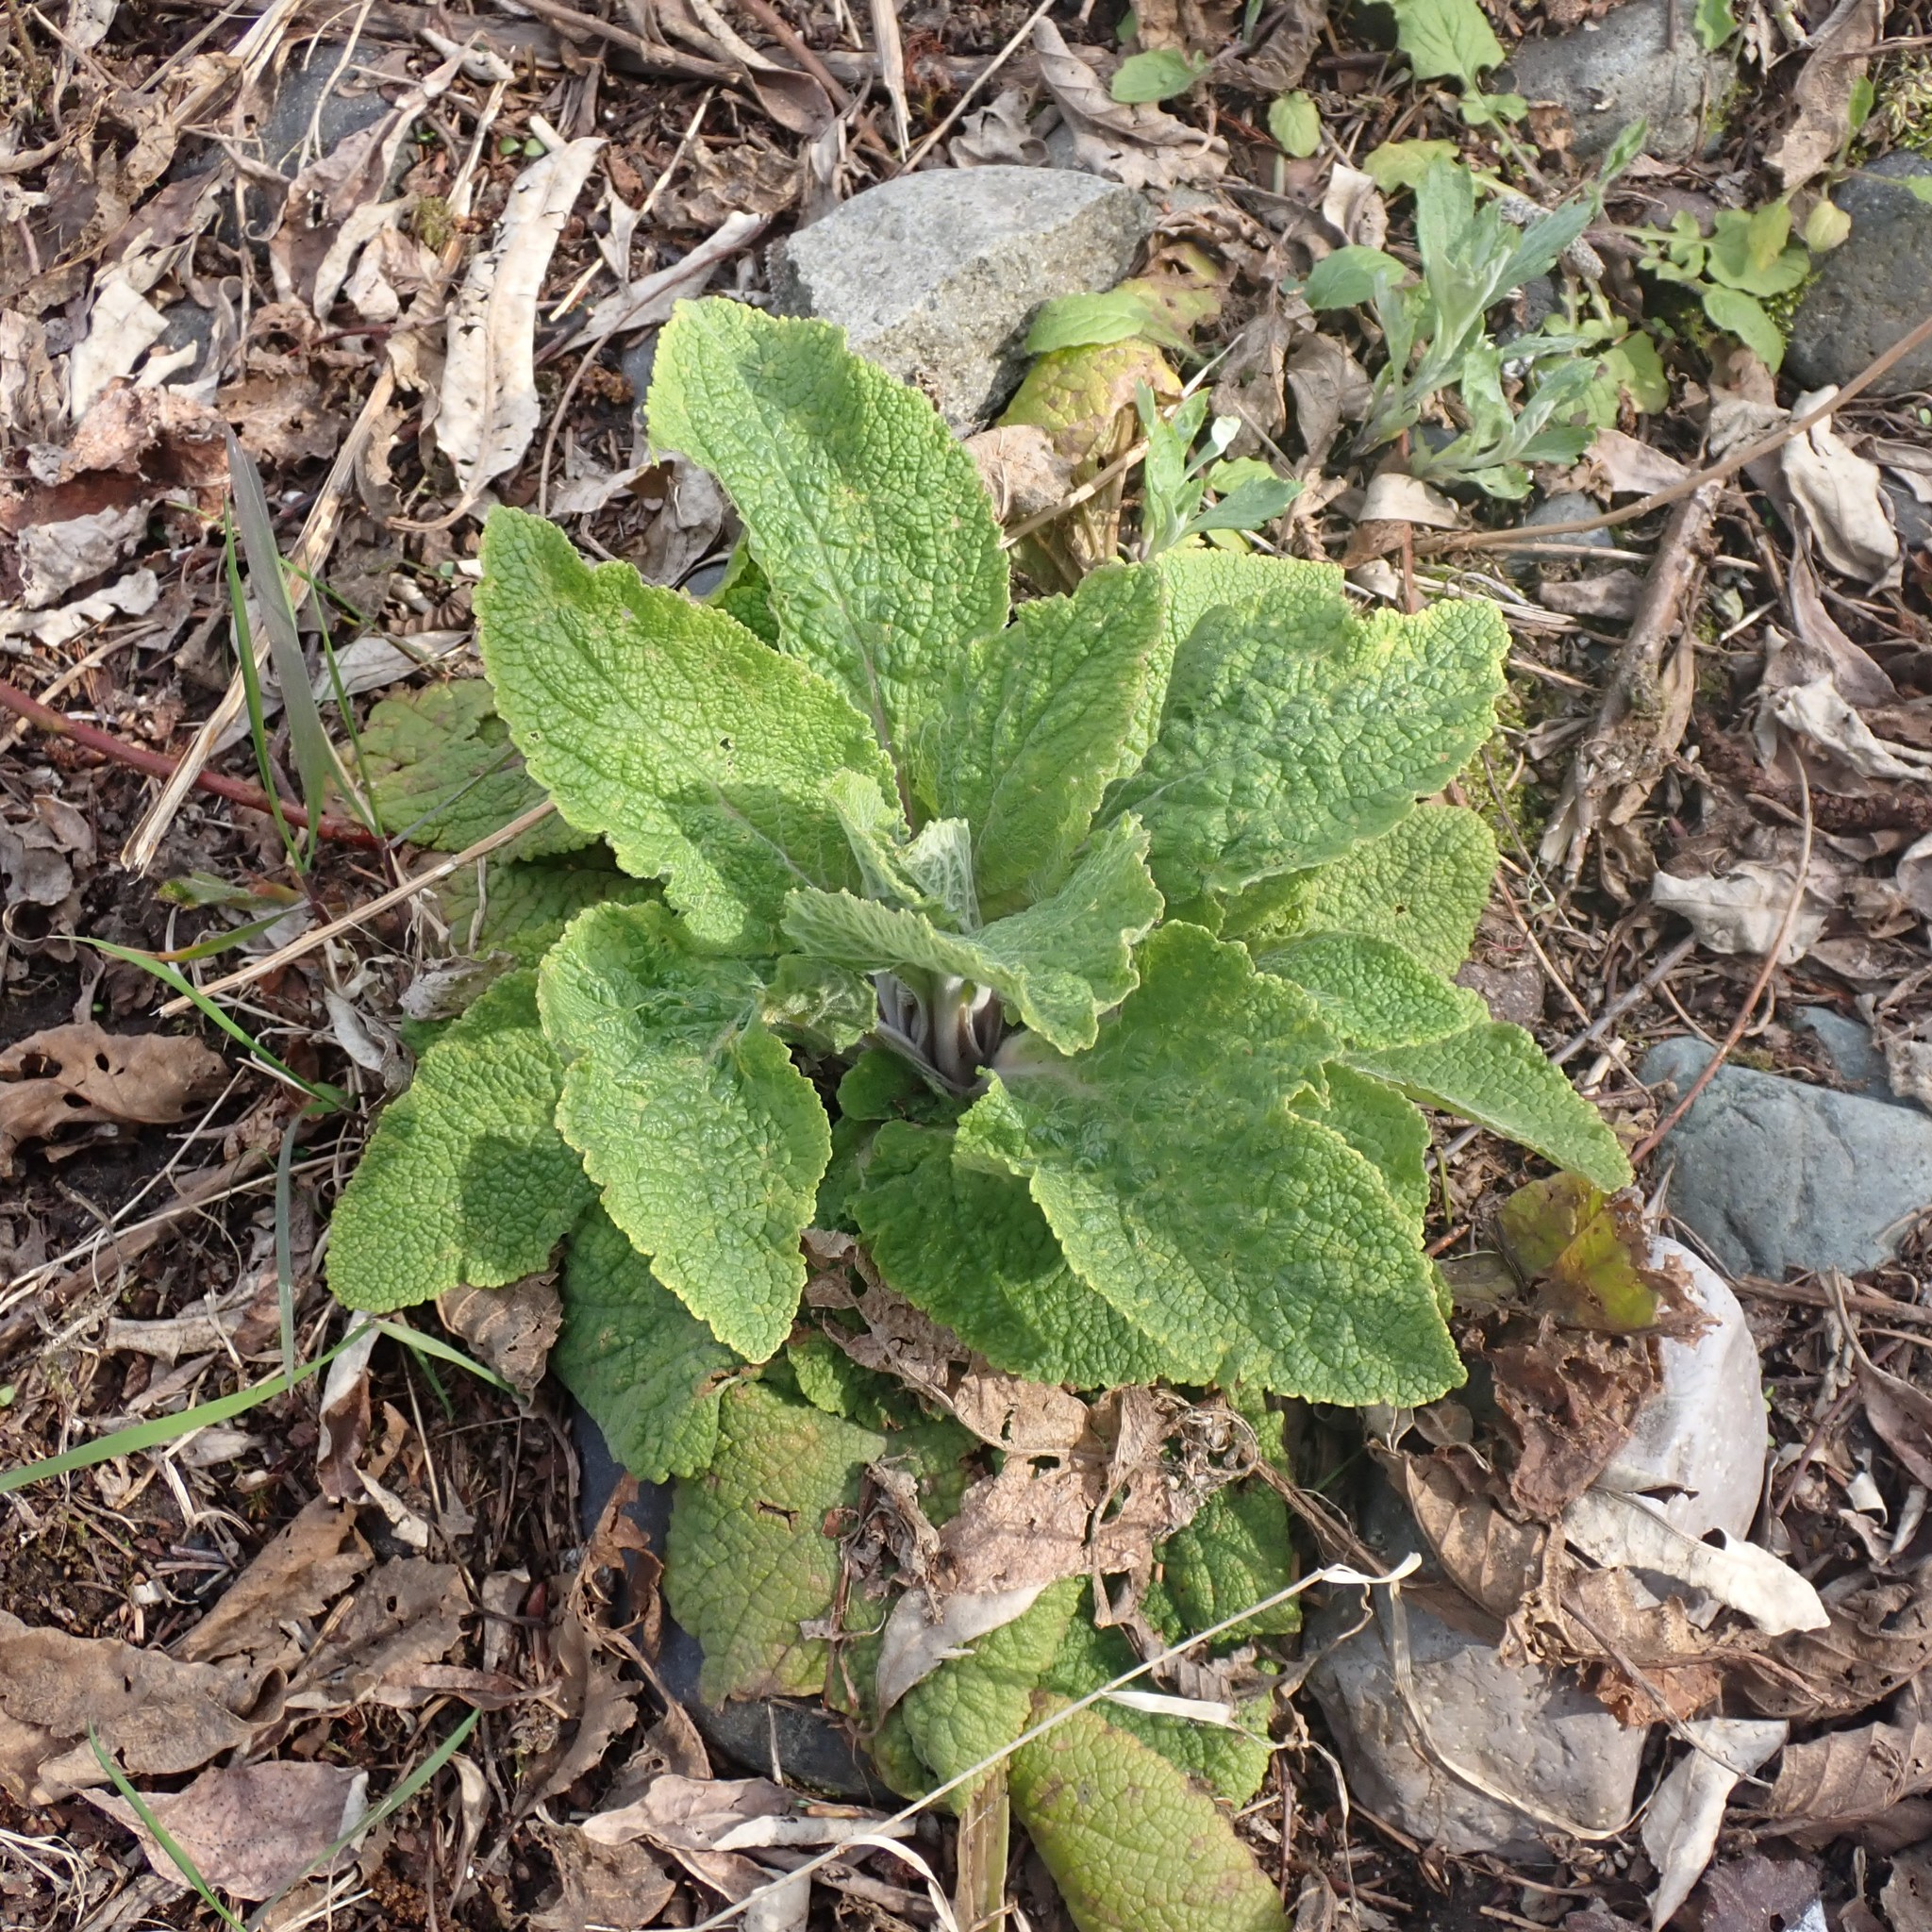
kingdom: Plantae
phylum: Tracheophyta
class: Magnoliopsida
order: Lamiales
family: Plantaginaceae
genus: Digitalis
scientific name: Digitalis purpurea
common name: Foxglove
